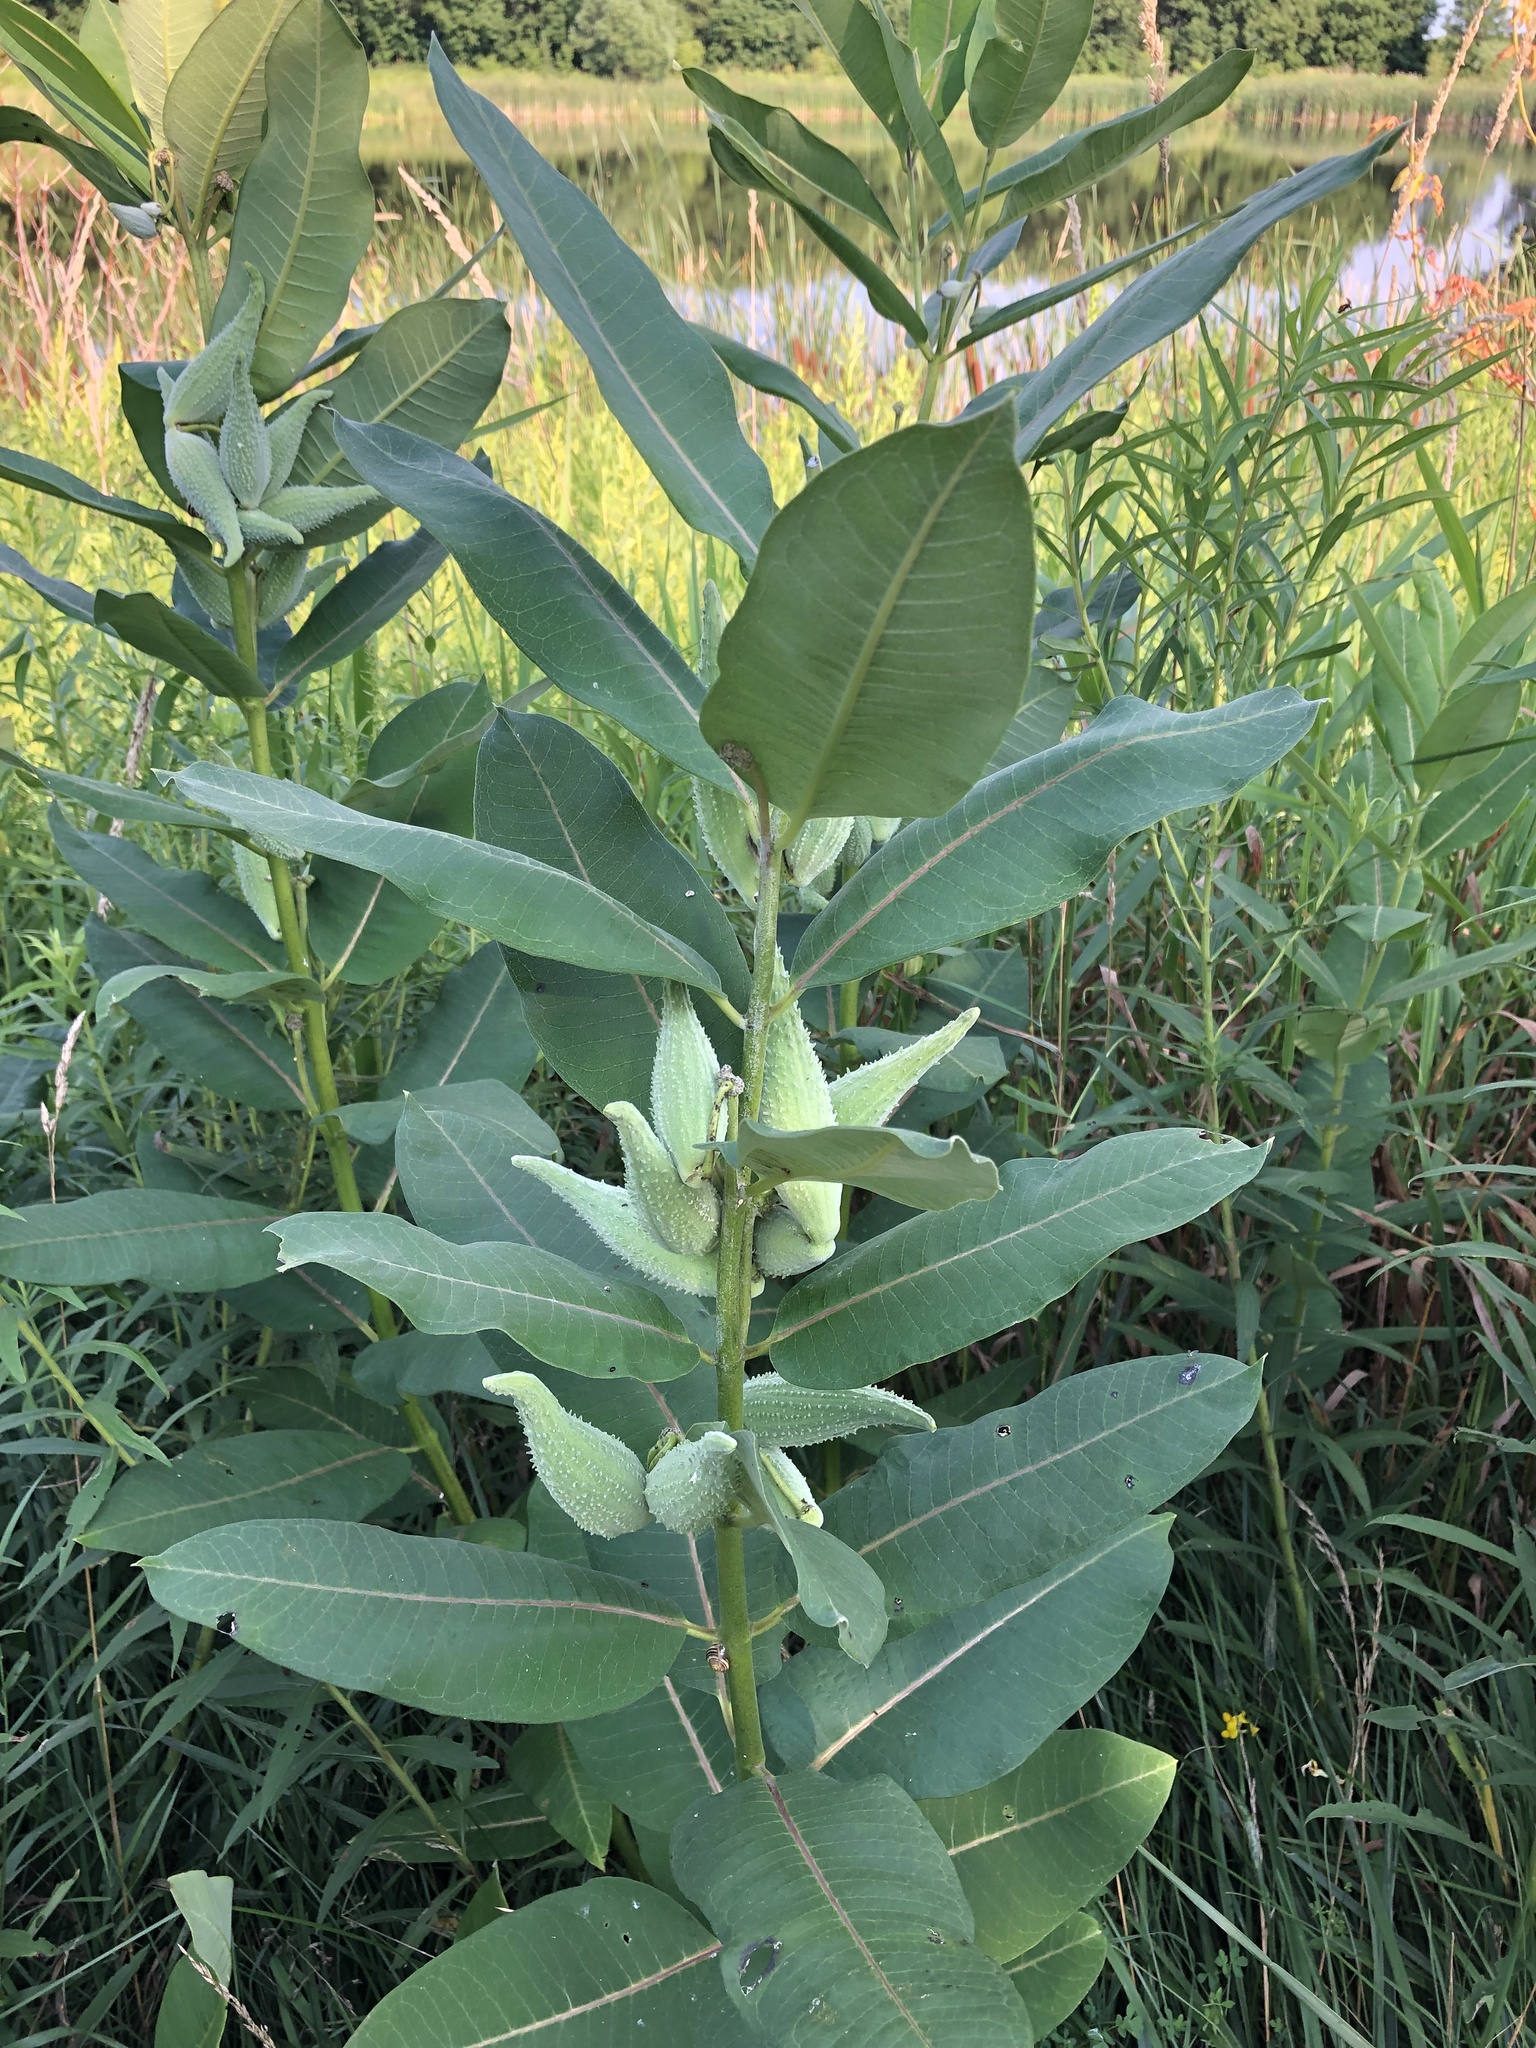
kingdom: Plantae
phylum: Tracheophyta
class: Magnoliopsida
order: Gentianales
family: Apocynaceae
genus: Asclepias
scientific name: Asclepias syriaca
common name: Common milkweed
